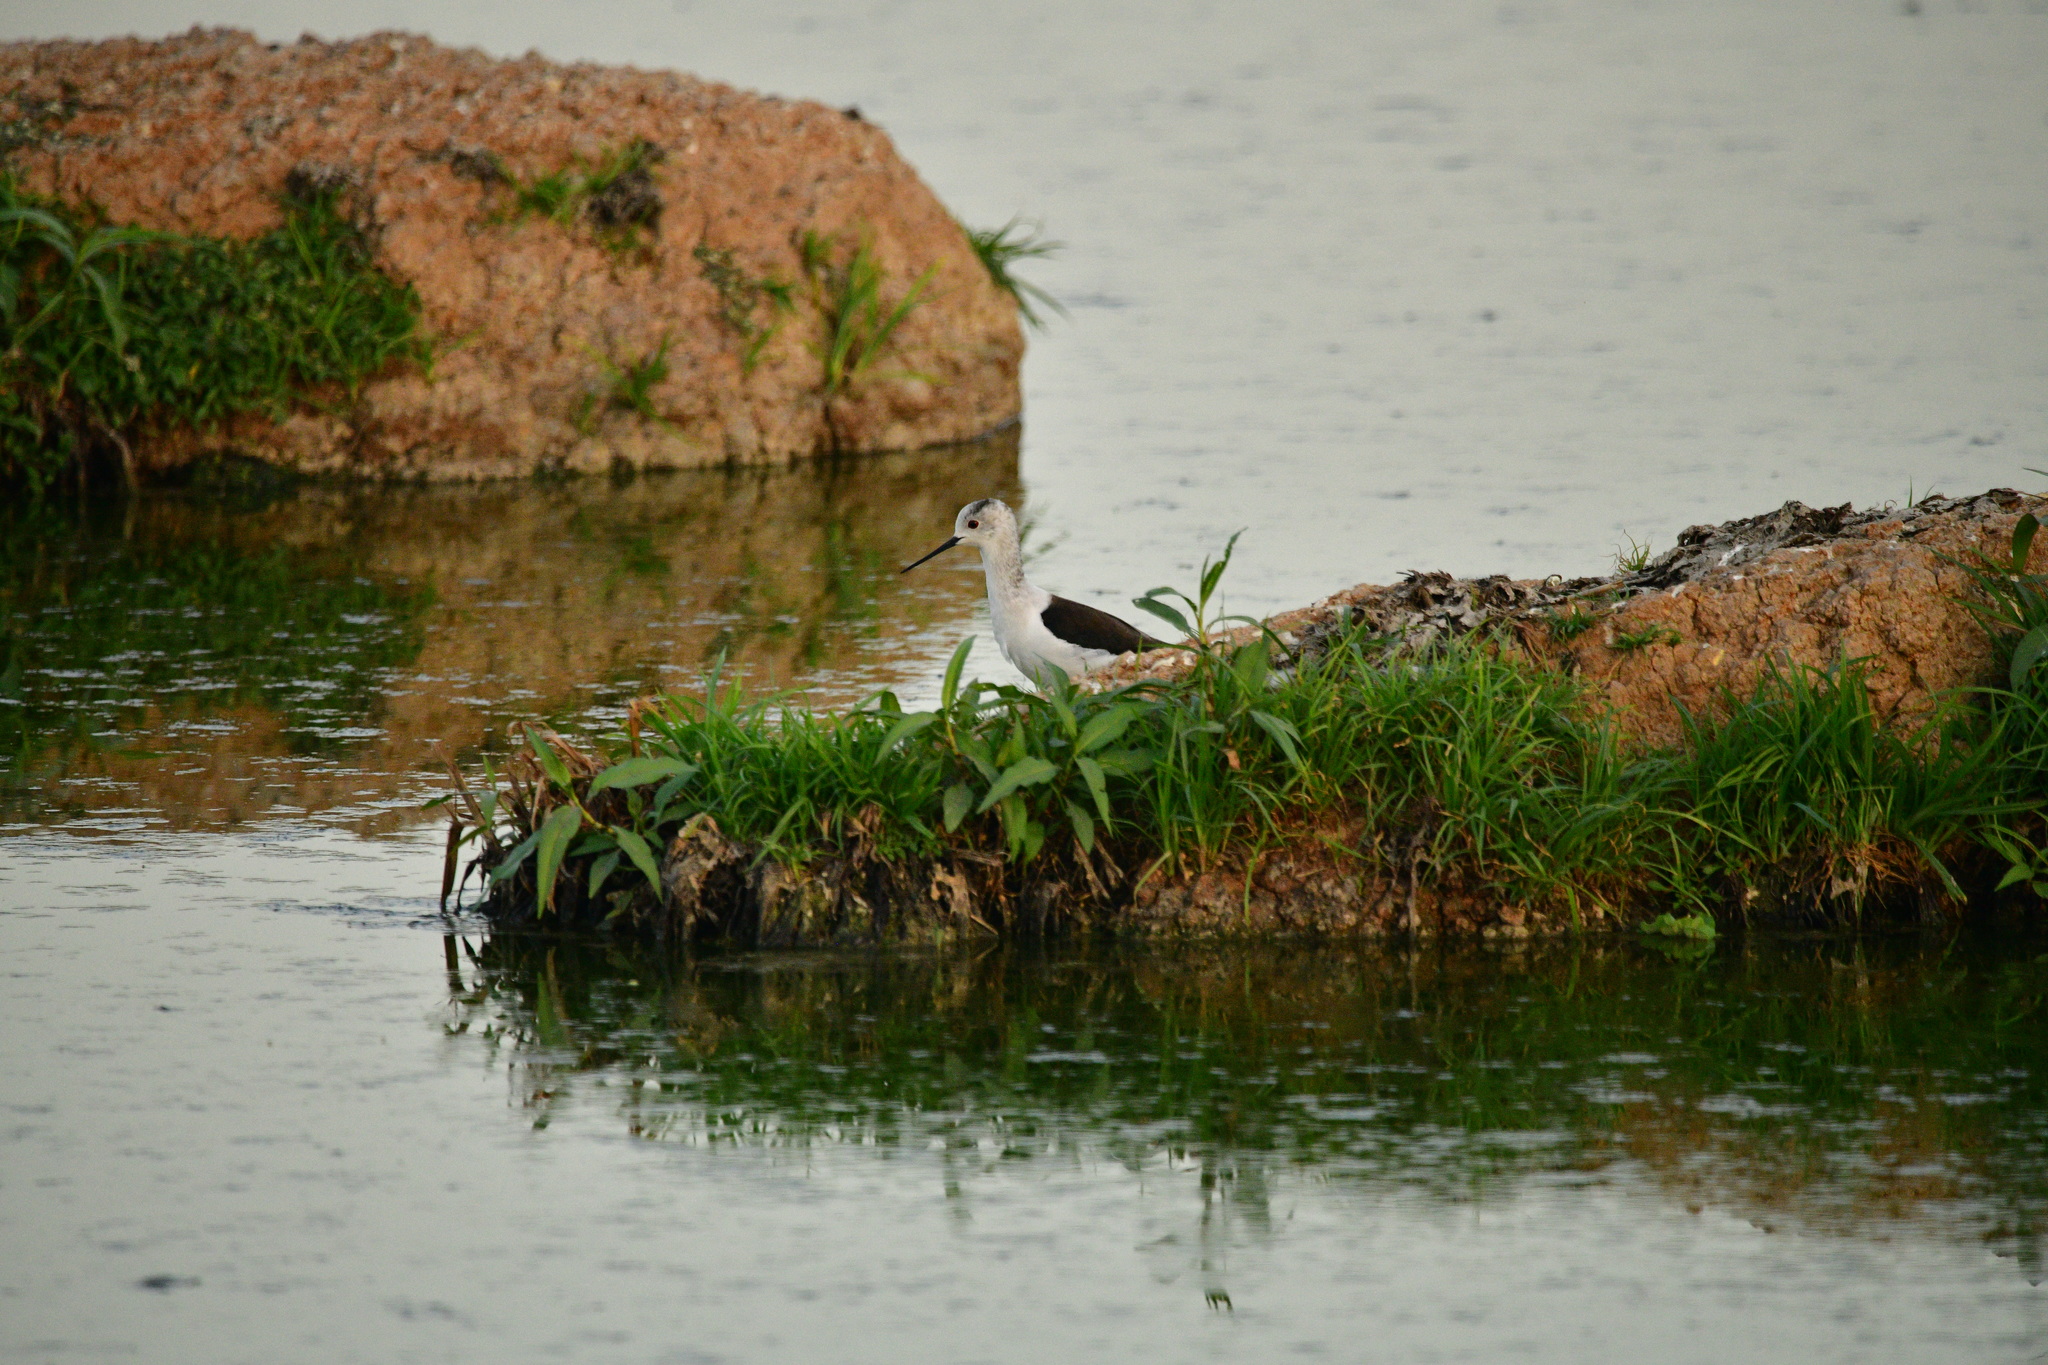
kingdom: Animalia
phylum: Chordata
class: Aves
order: Charadriiformes
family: Recurvirostridae
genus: Himantopus
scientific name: Himantopus himantopus
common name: Black-winged stilt
